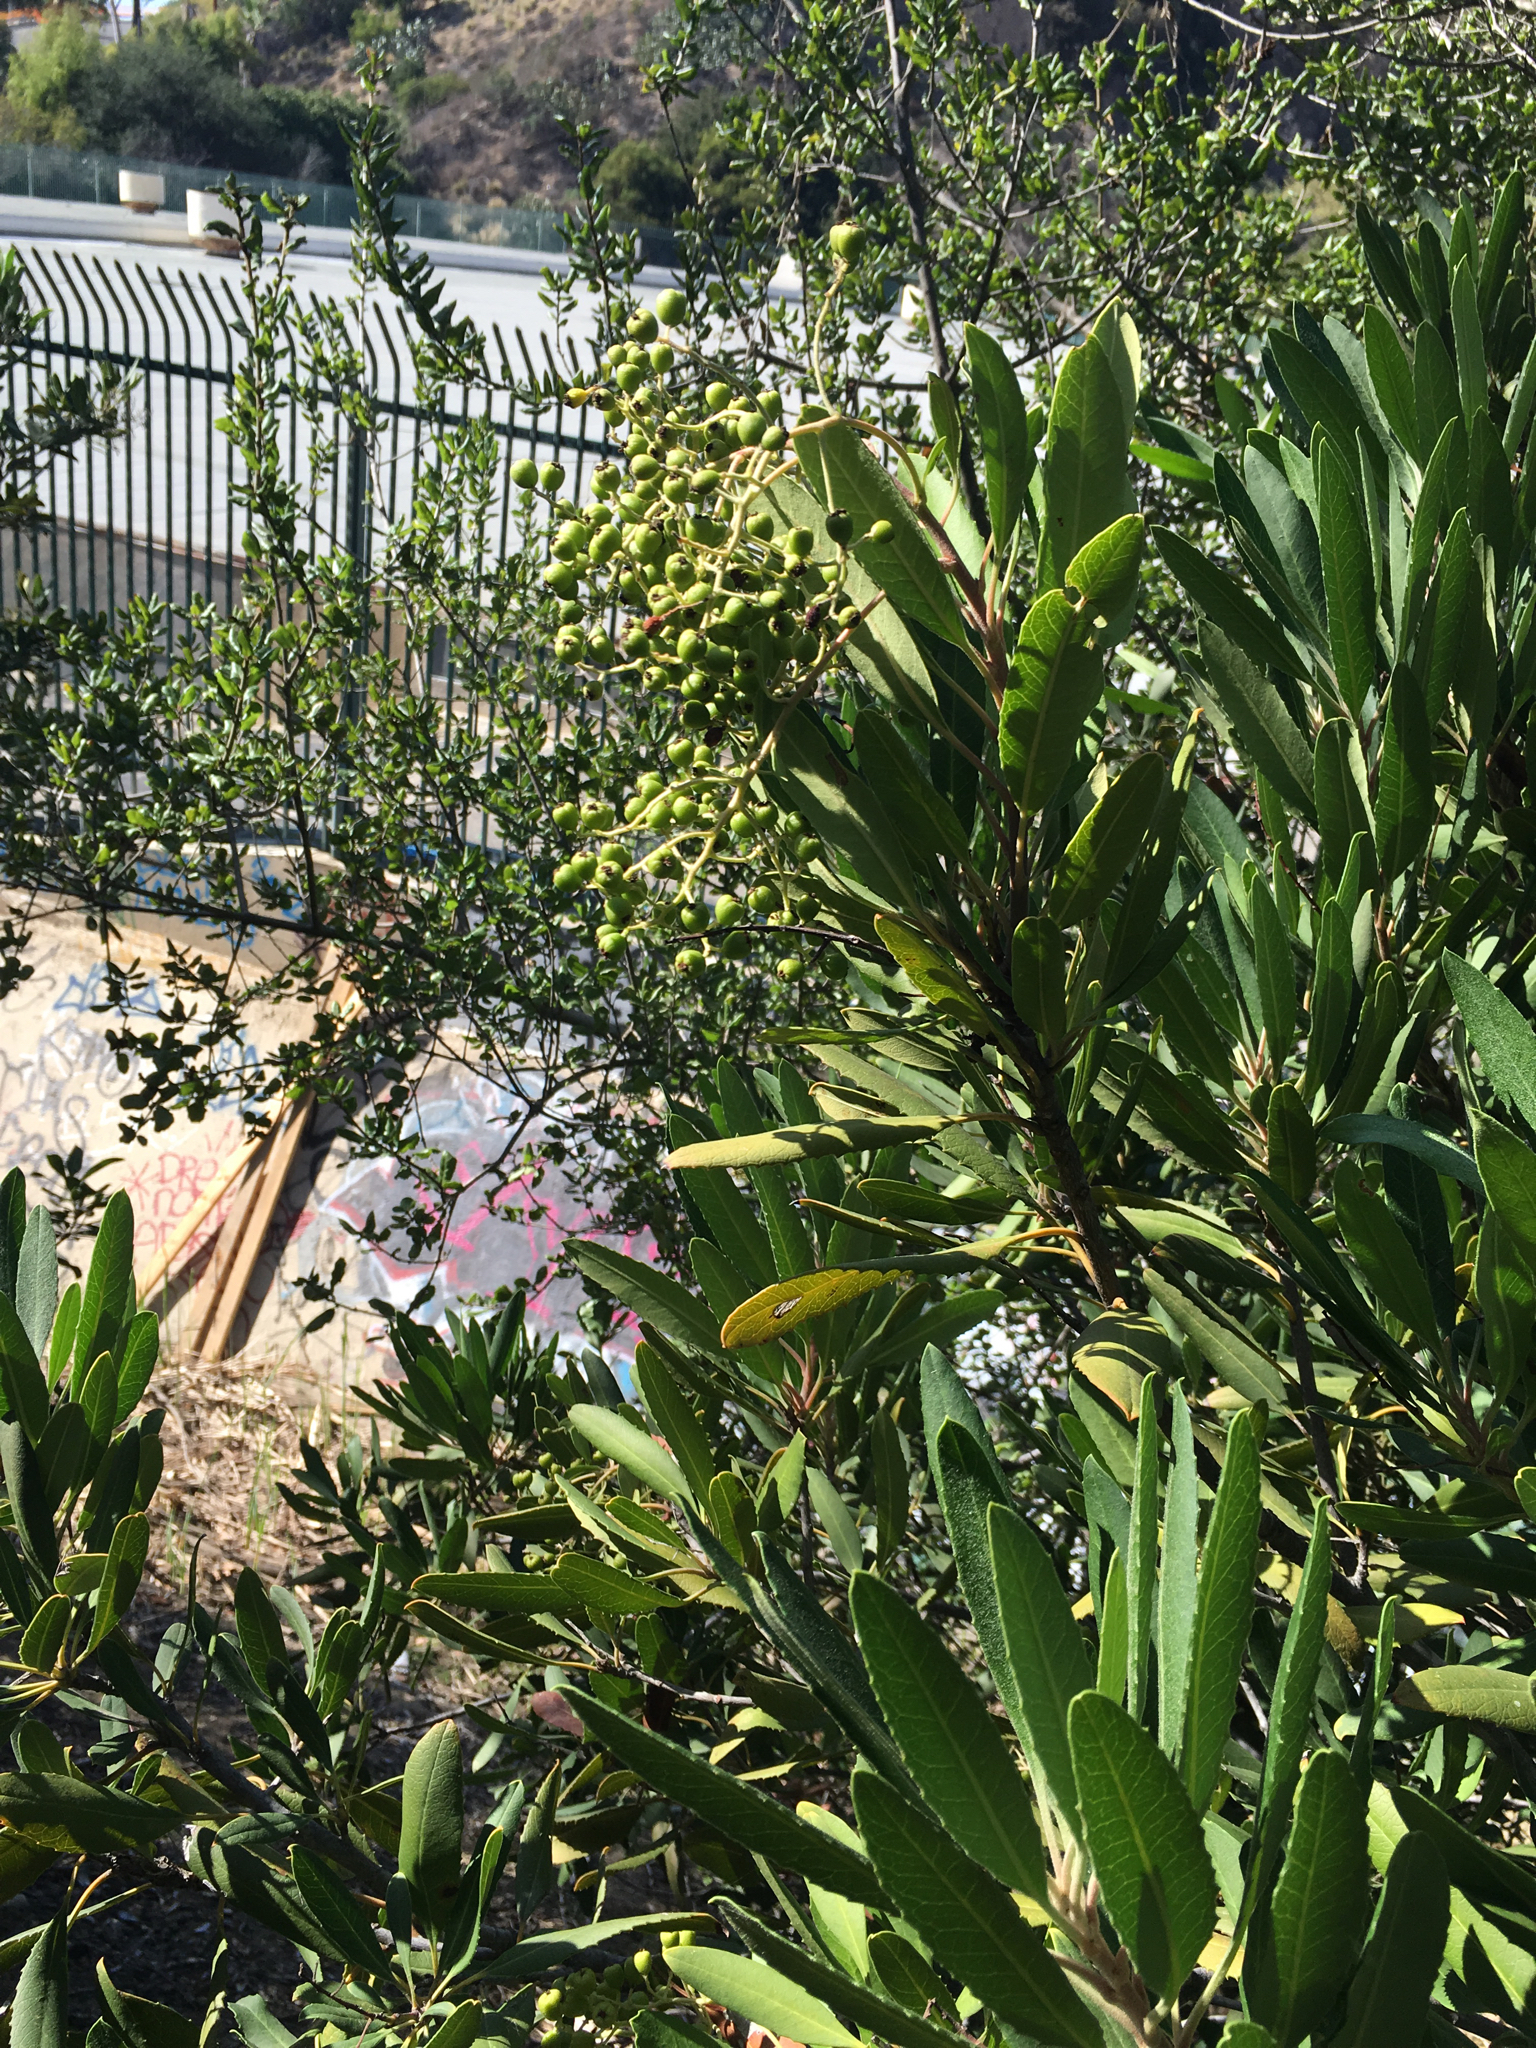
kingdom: Plantae
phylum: Tracheophyta
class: Magnoliopsida
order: Rosales
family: Rosaceae
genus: Heteromeles
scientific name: Heteromeles arbutifolia
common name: California-holly
